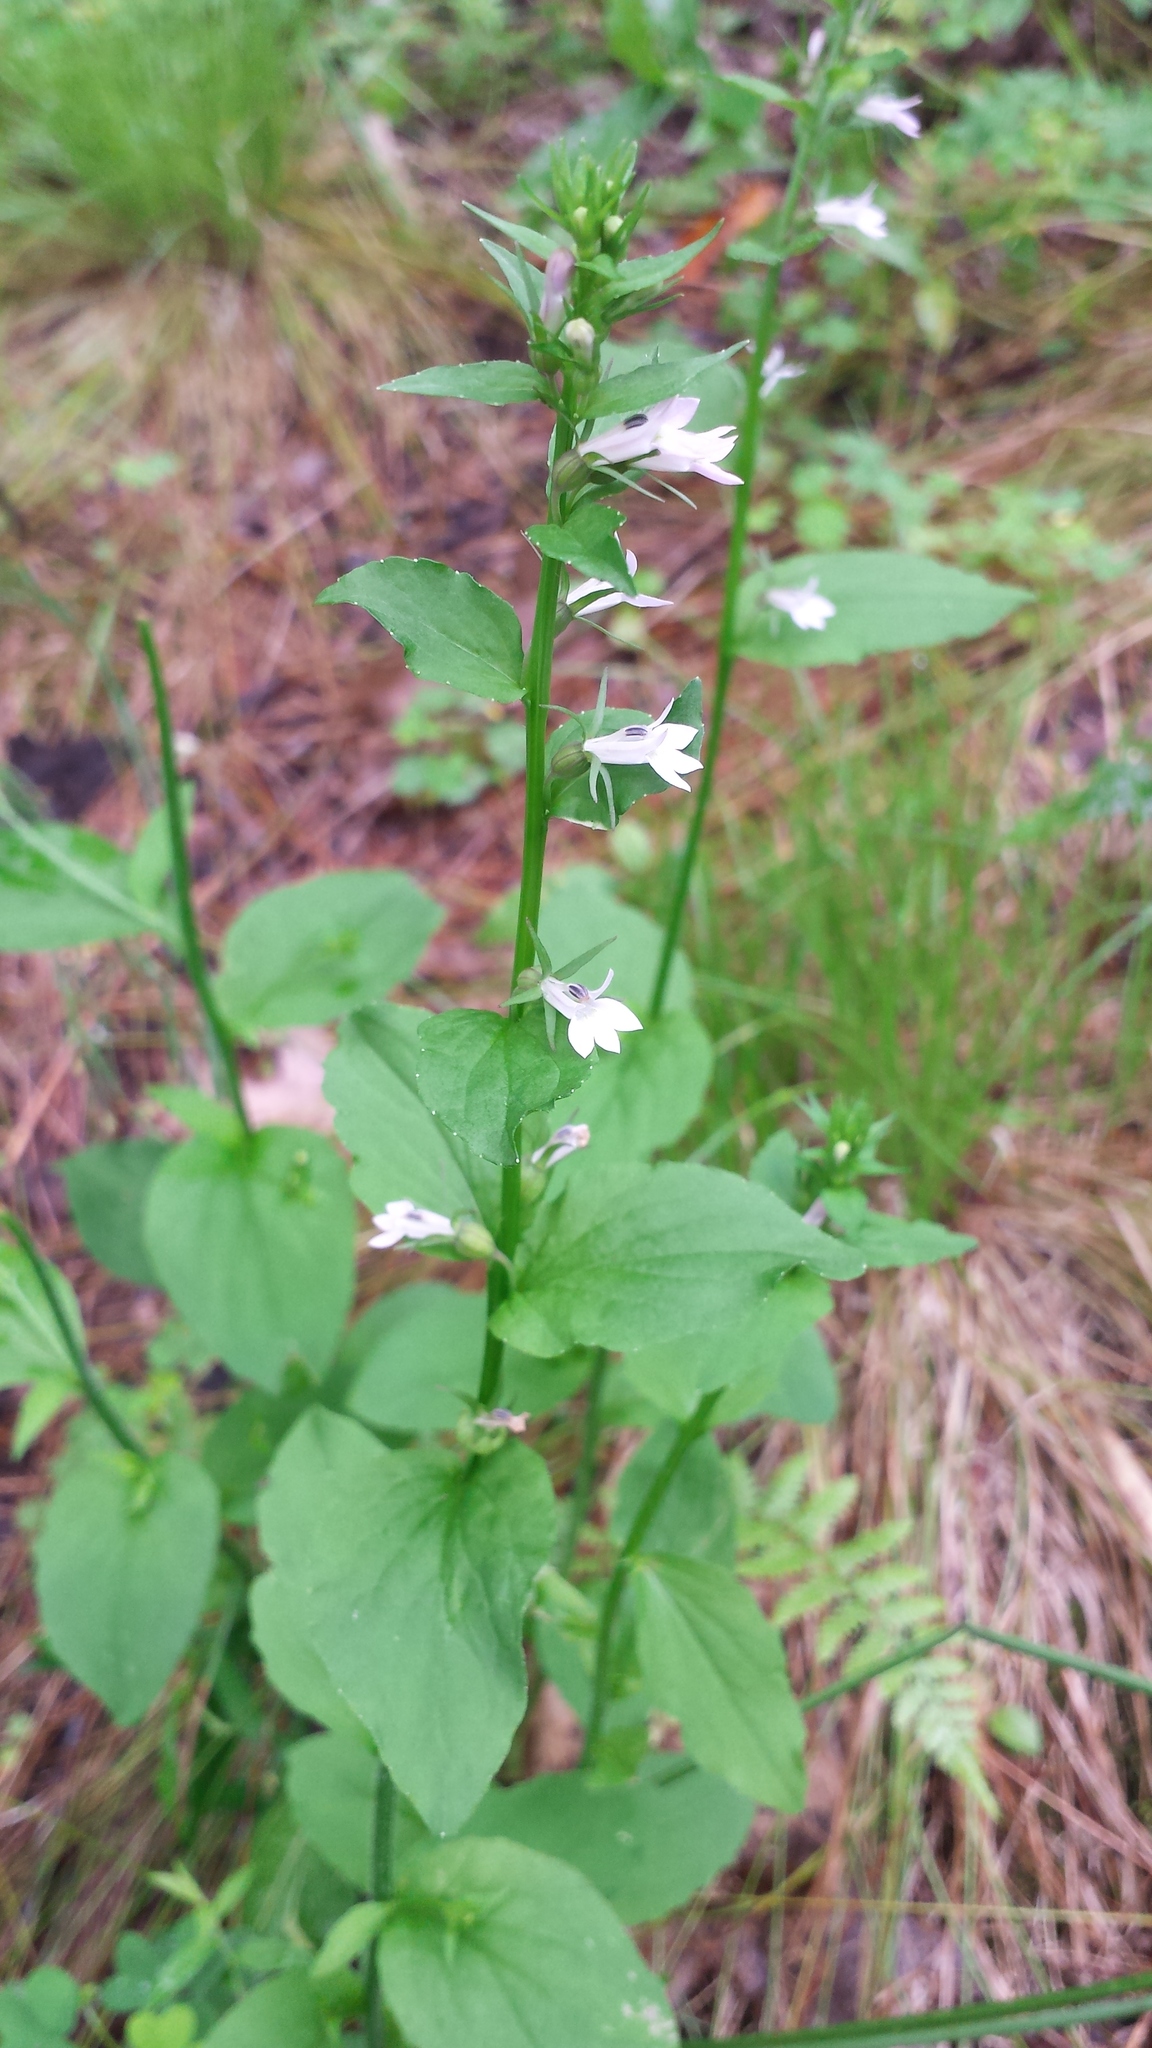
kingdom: Plantae
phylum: Tracheophyta
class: Magnoliopsida
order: Asterales
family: Campanulaceae
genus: Lobelia
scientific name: Lobelia inflata
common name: Indian tobacco
